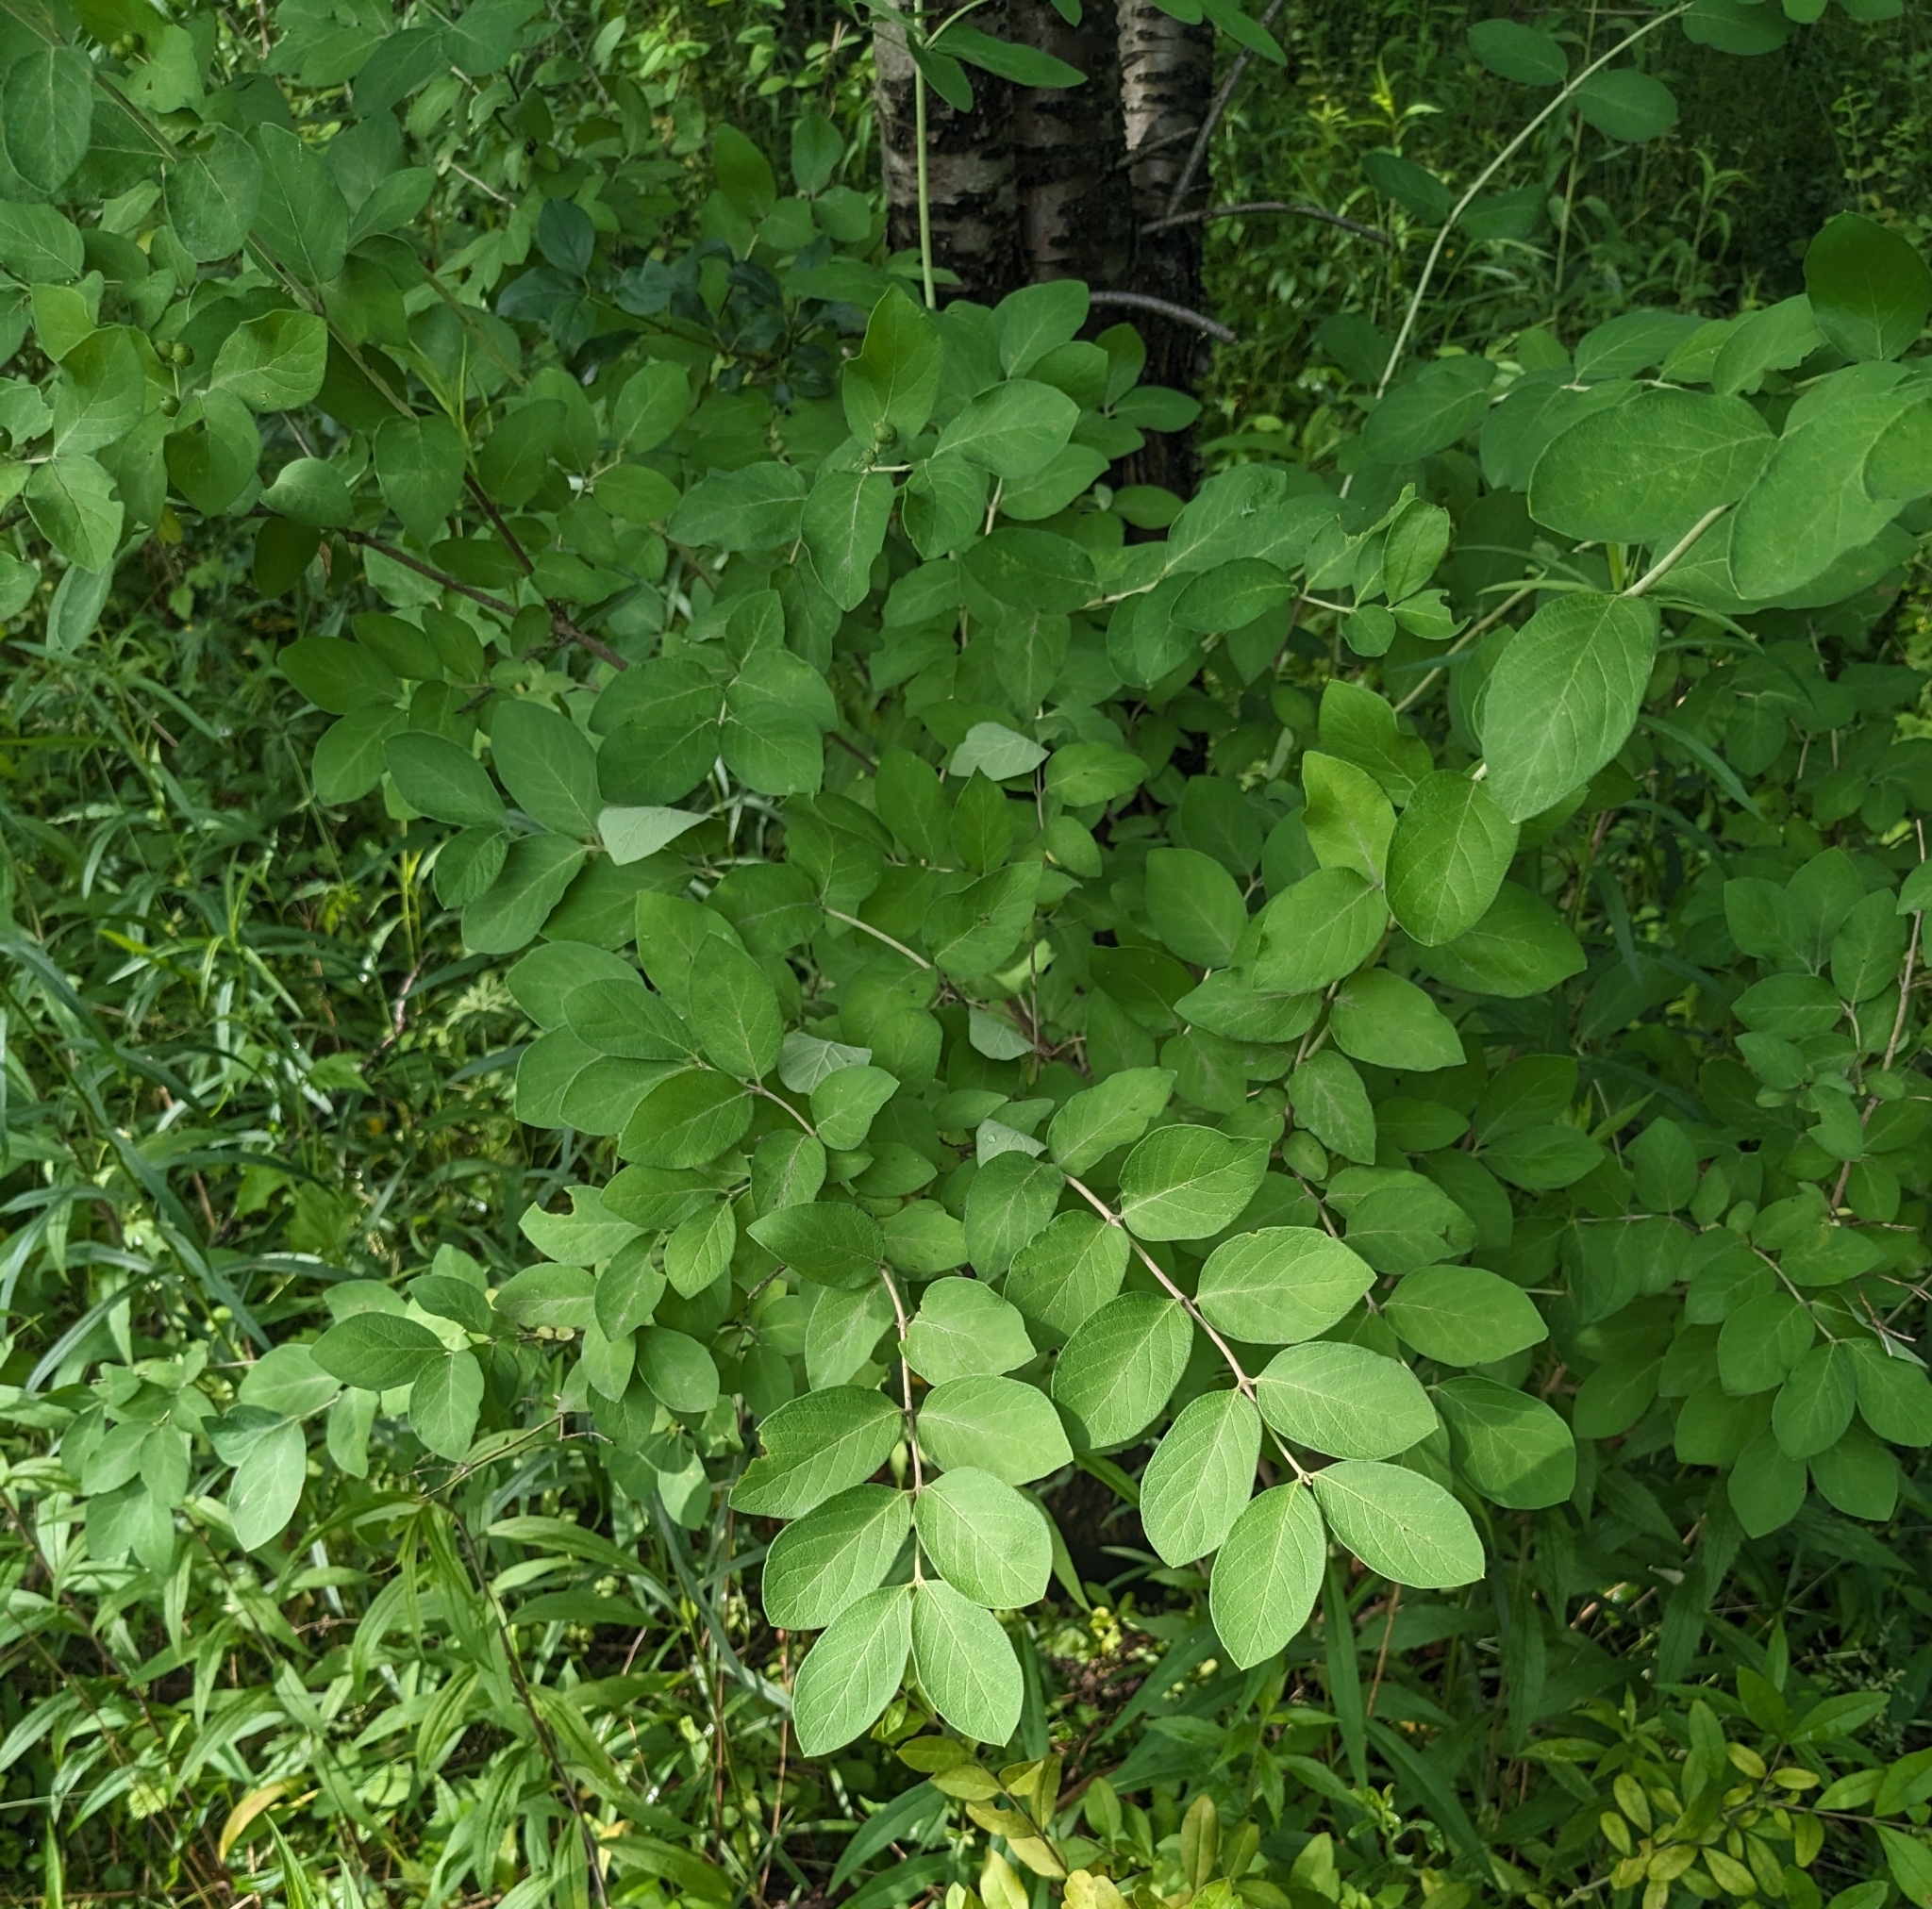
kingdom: Plantae
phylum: Tracheophyta
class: Magnoliopsida
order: Dipsacales
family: Caprifoliaceae
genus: Lonicera
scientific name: Lonicera
